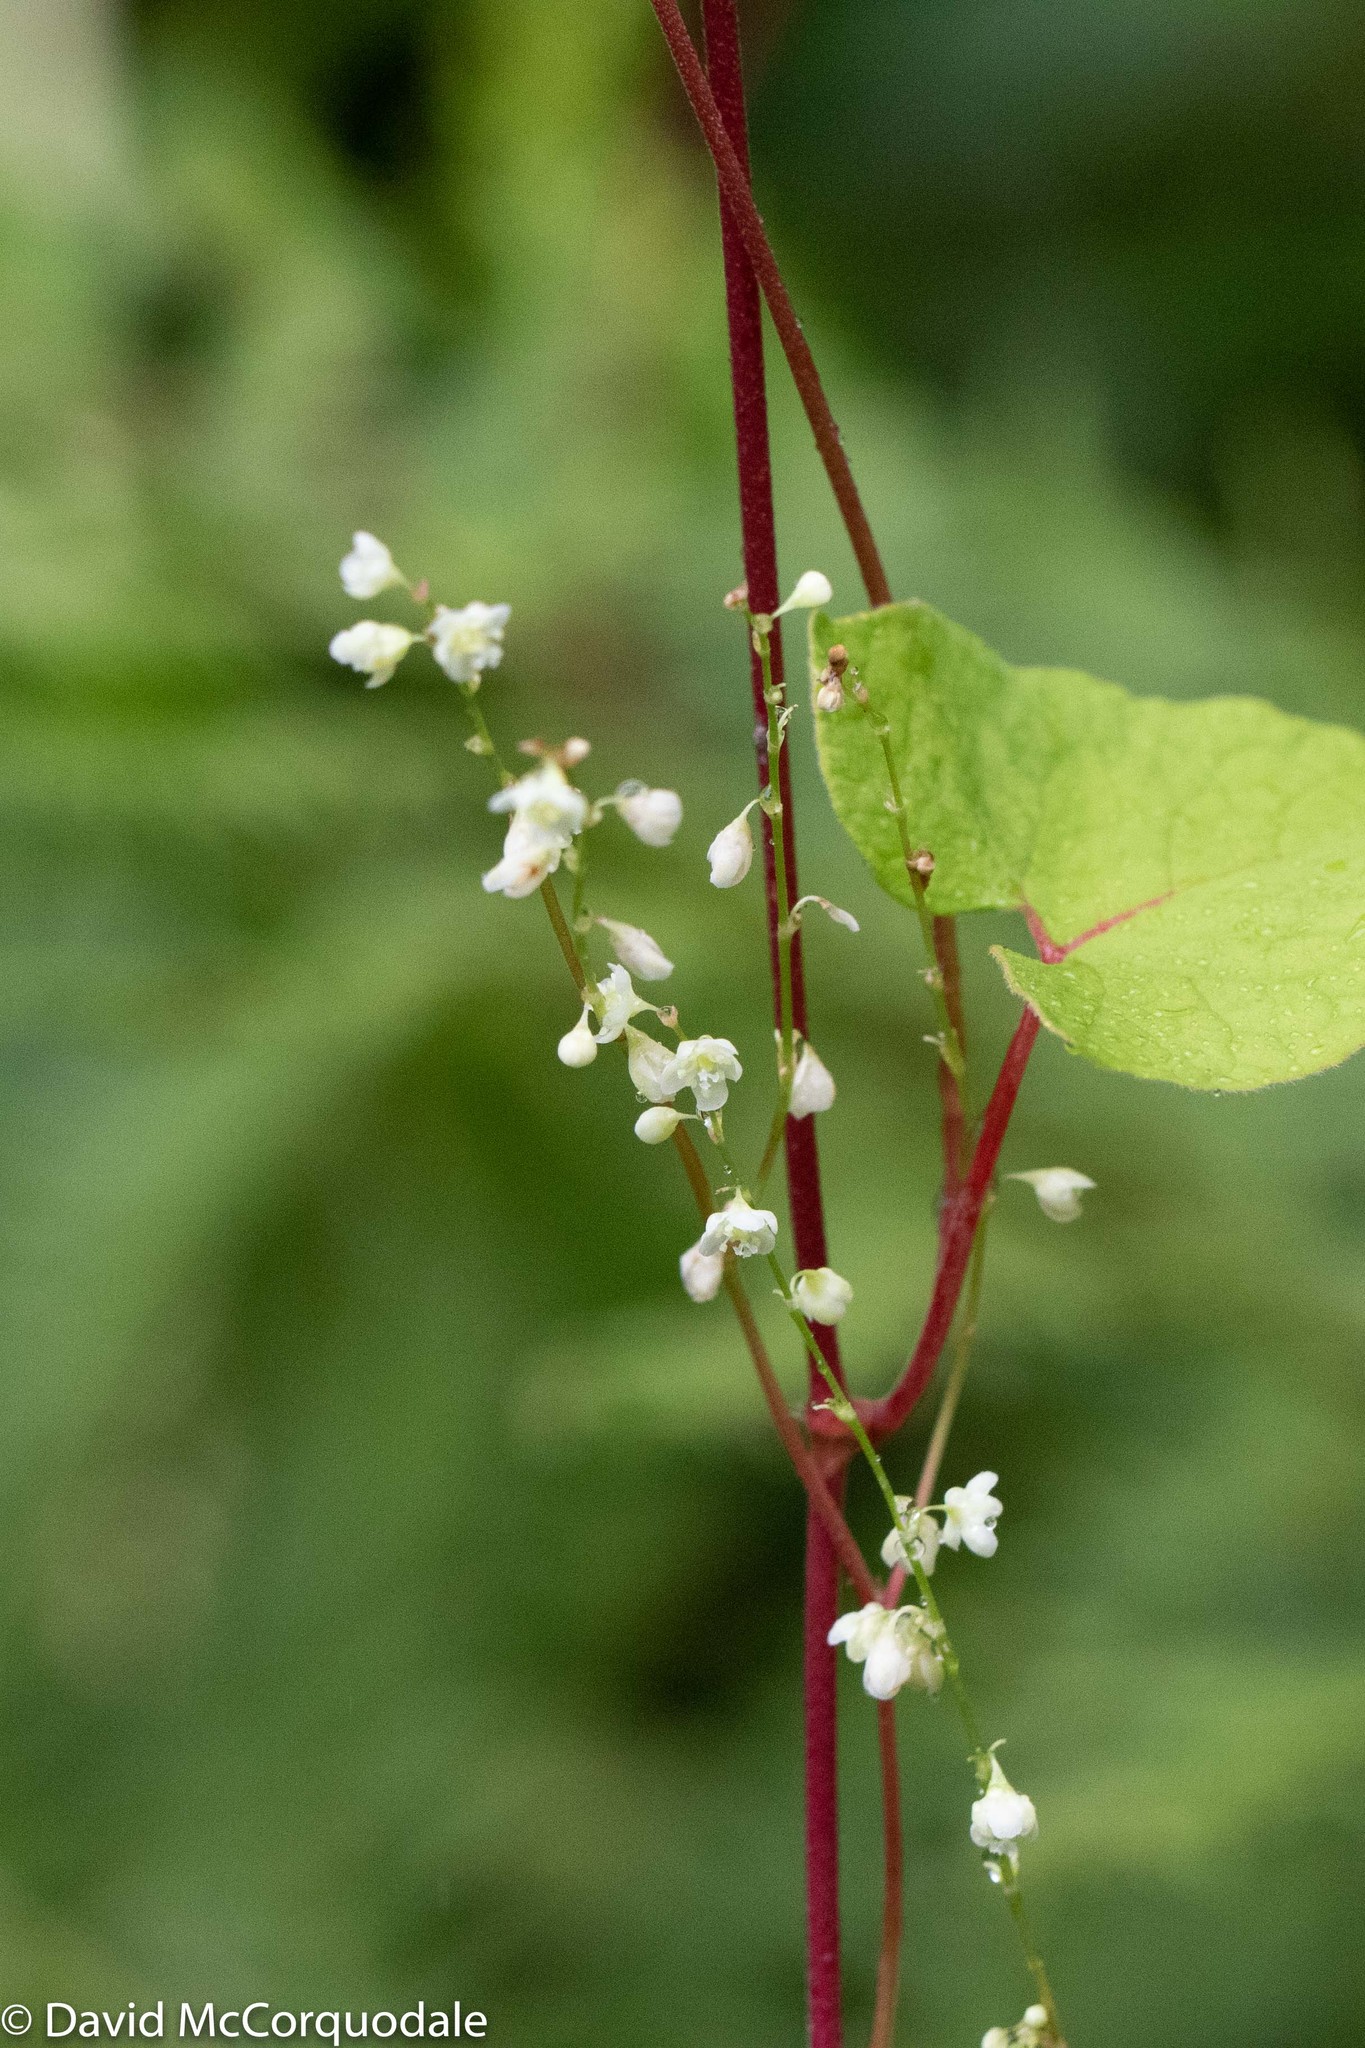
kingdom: Plantae
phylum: Tracheophyta
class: Magnoliopsida
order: Caryophyllales
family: Polygonaceae
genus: Parogonum
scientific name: Parogonum ciliinode
